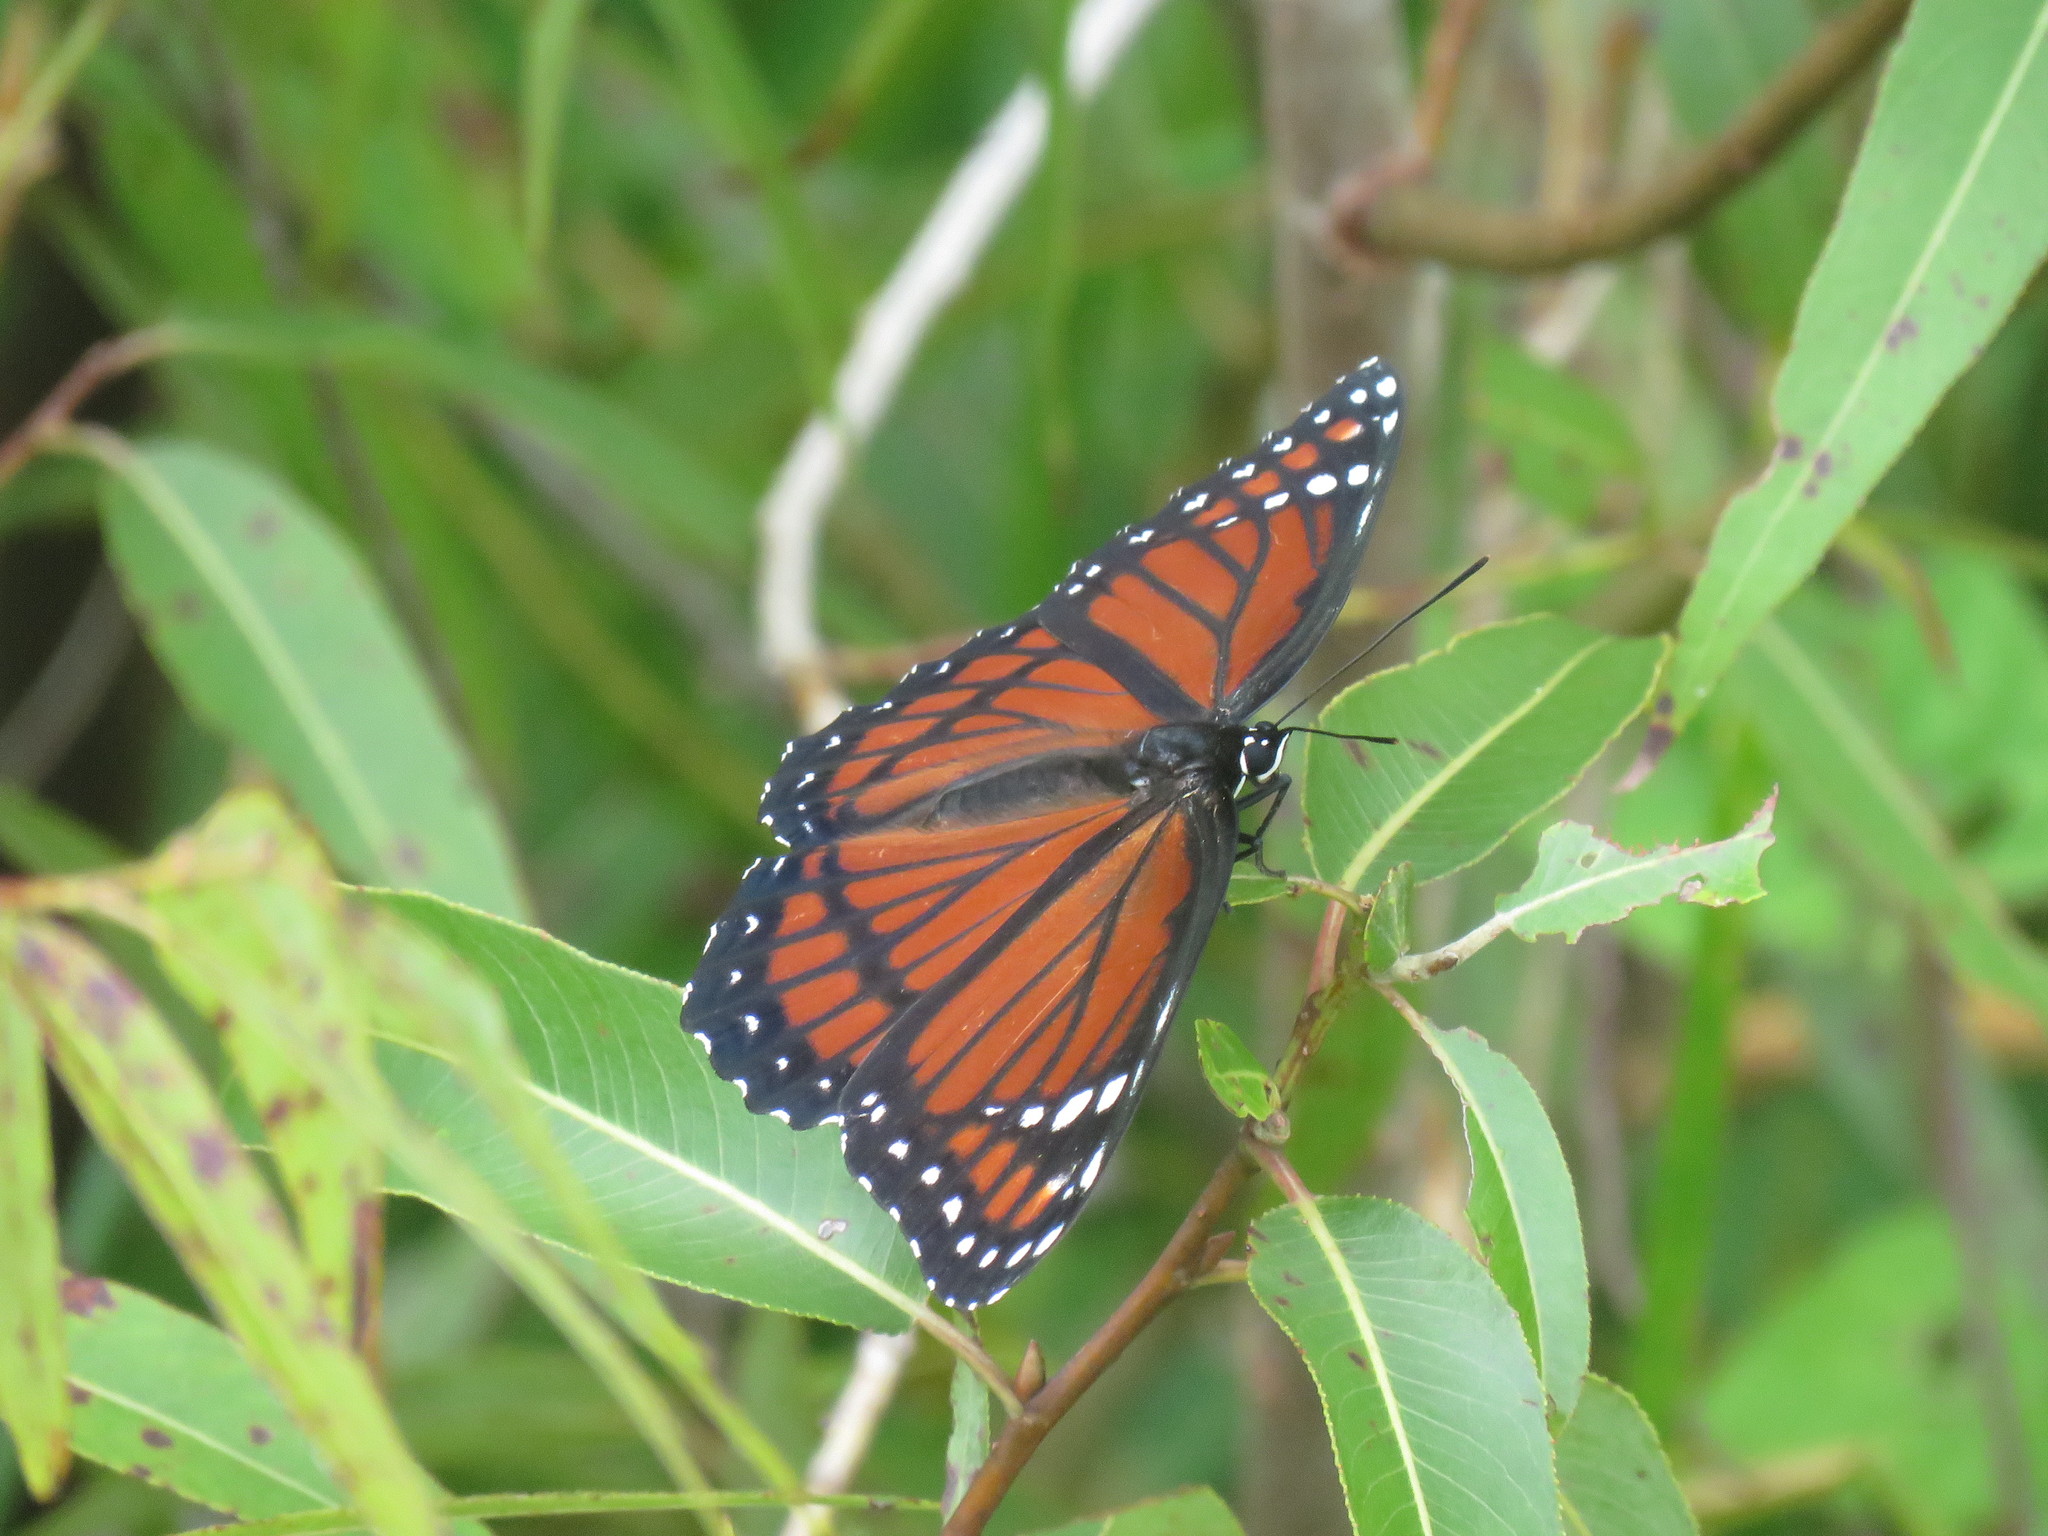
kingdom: Animalia
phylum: Arthropoda
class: Insecta
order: Lepidoptera
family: Nymphalidae
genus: Limenitis
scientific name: Limenitis archippus
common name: Viceroy
